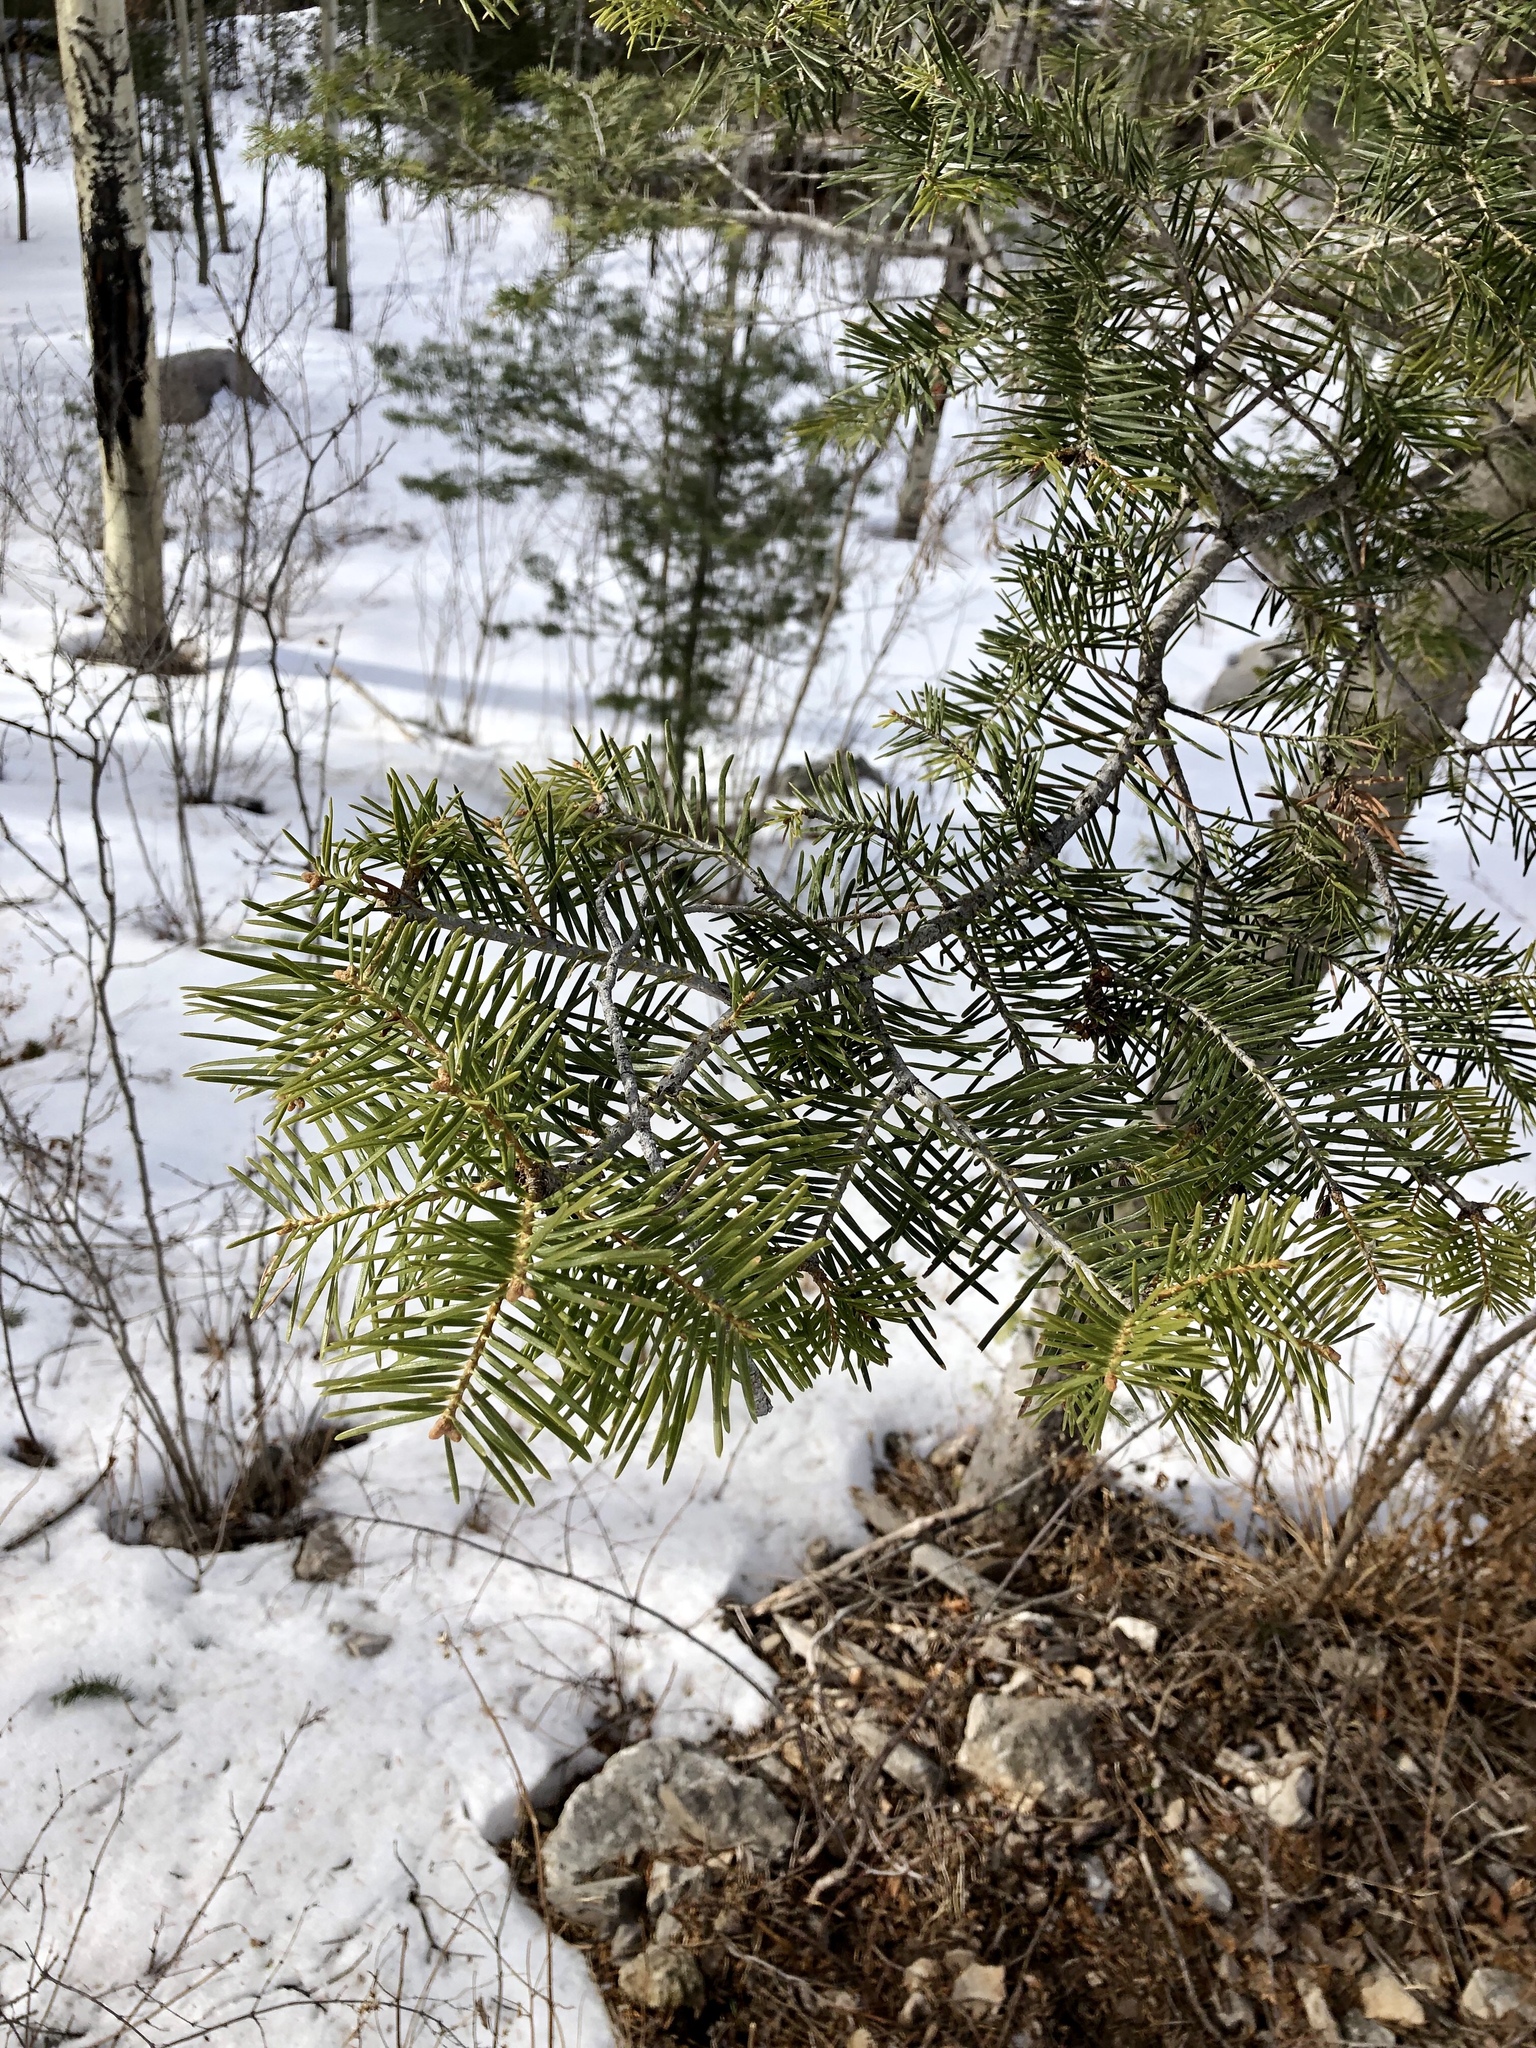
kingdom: Plantae
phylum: Tracheophyta
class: Pinopsida
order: Pinales
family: Pinaceae
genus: Abies
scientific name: Abies concolor
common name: Colorado fir
